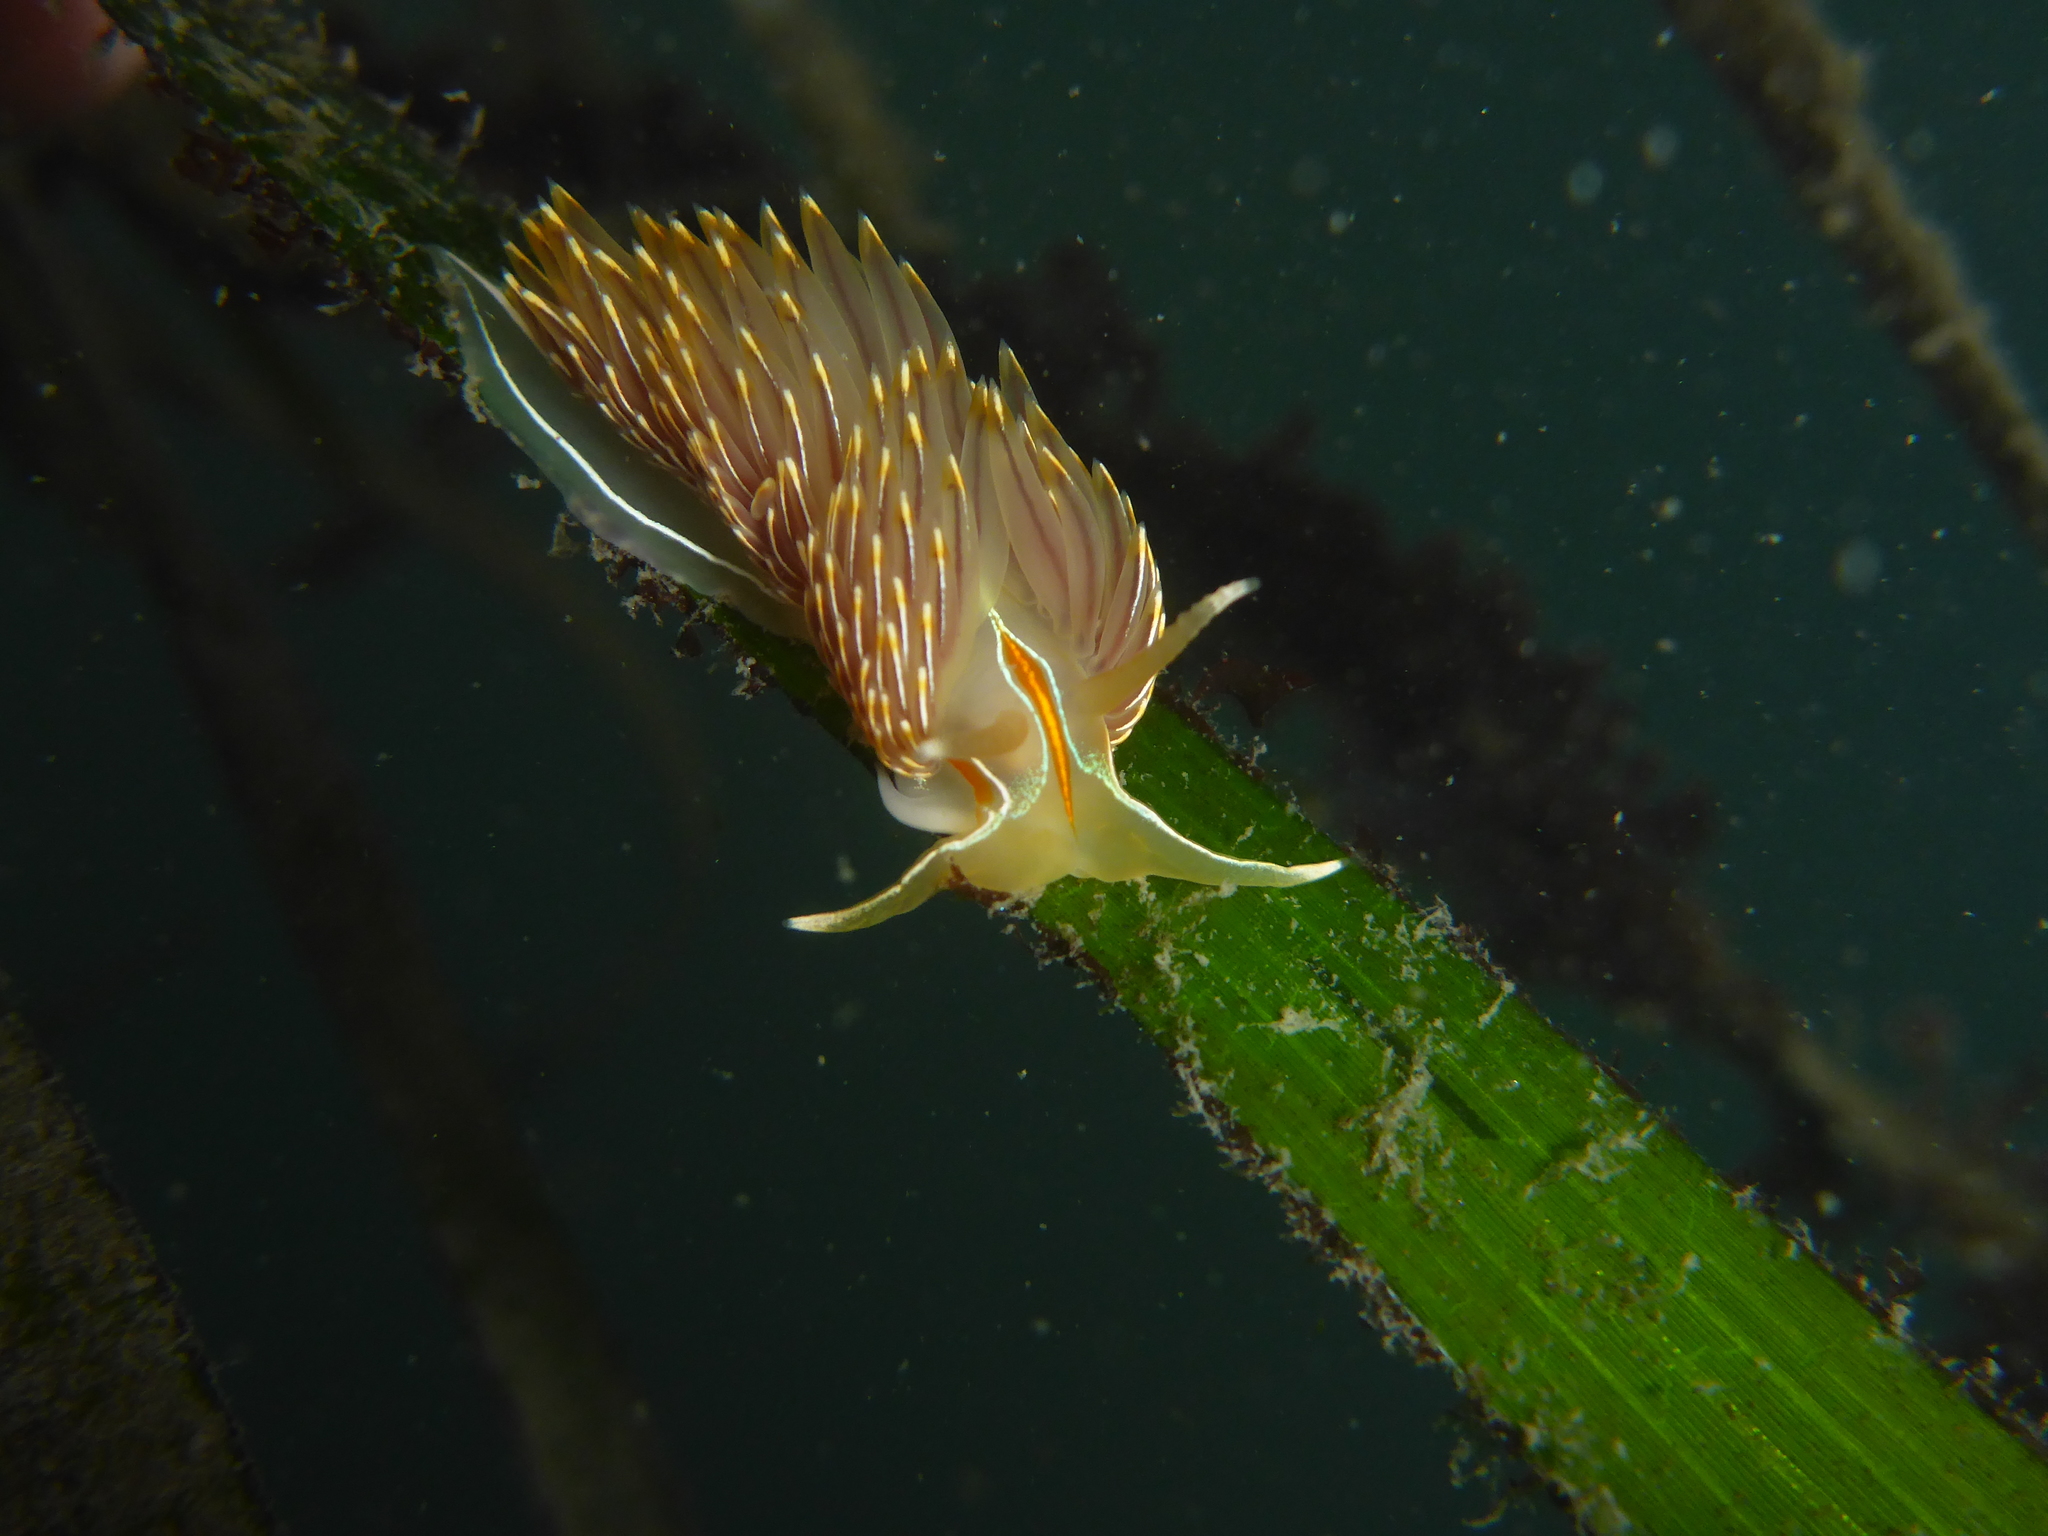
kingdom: Animalia
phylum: Mollusca
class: Gastropoda
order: Nudibranchia
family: Myrrhinidae
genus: Hermissenda
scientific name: Hermissenda crassicornis
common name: Hermissenda
